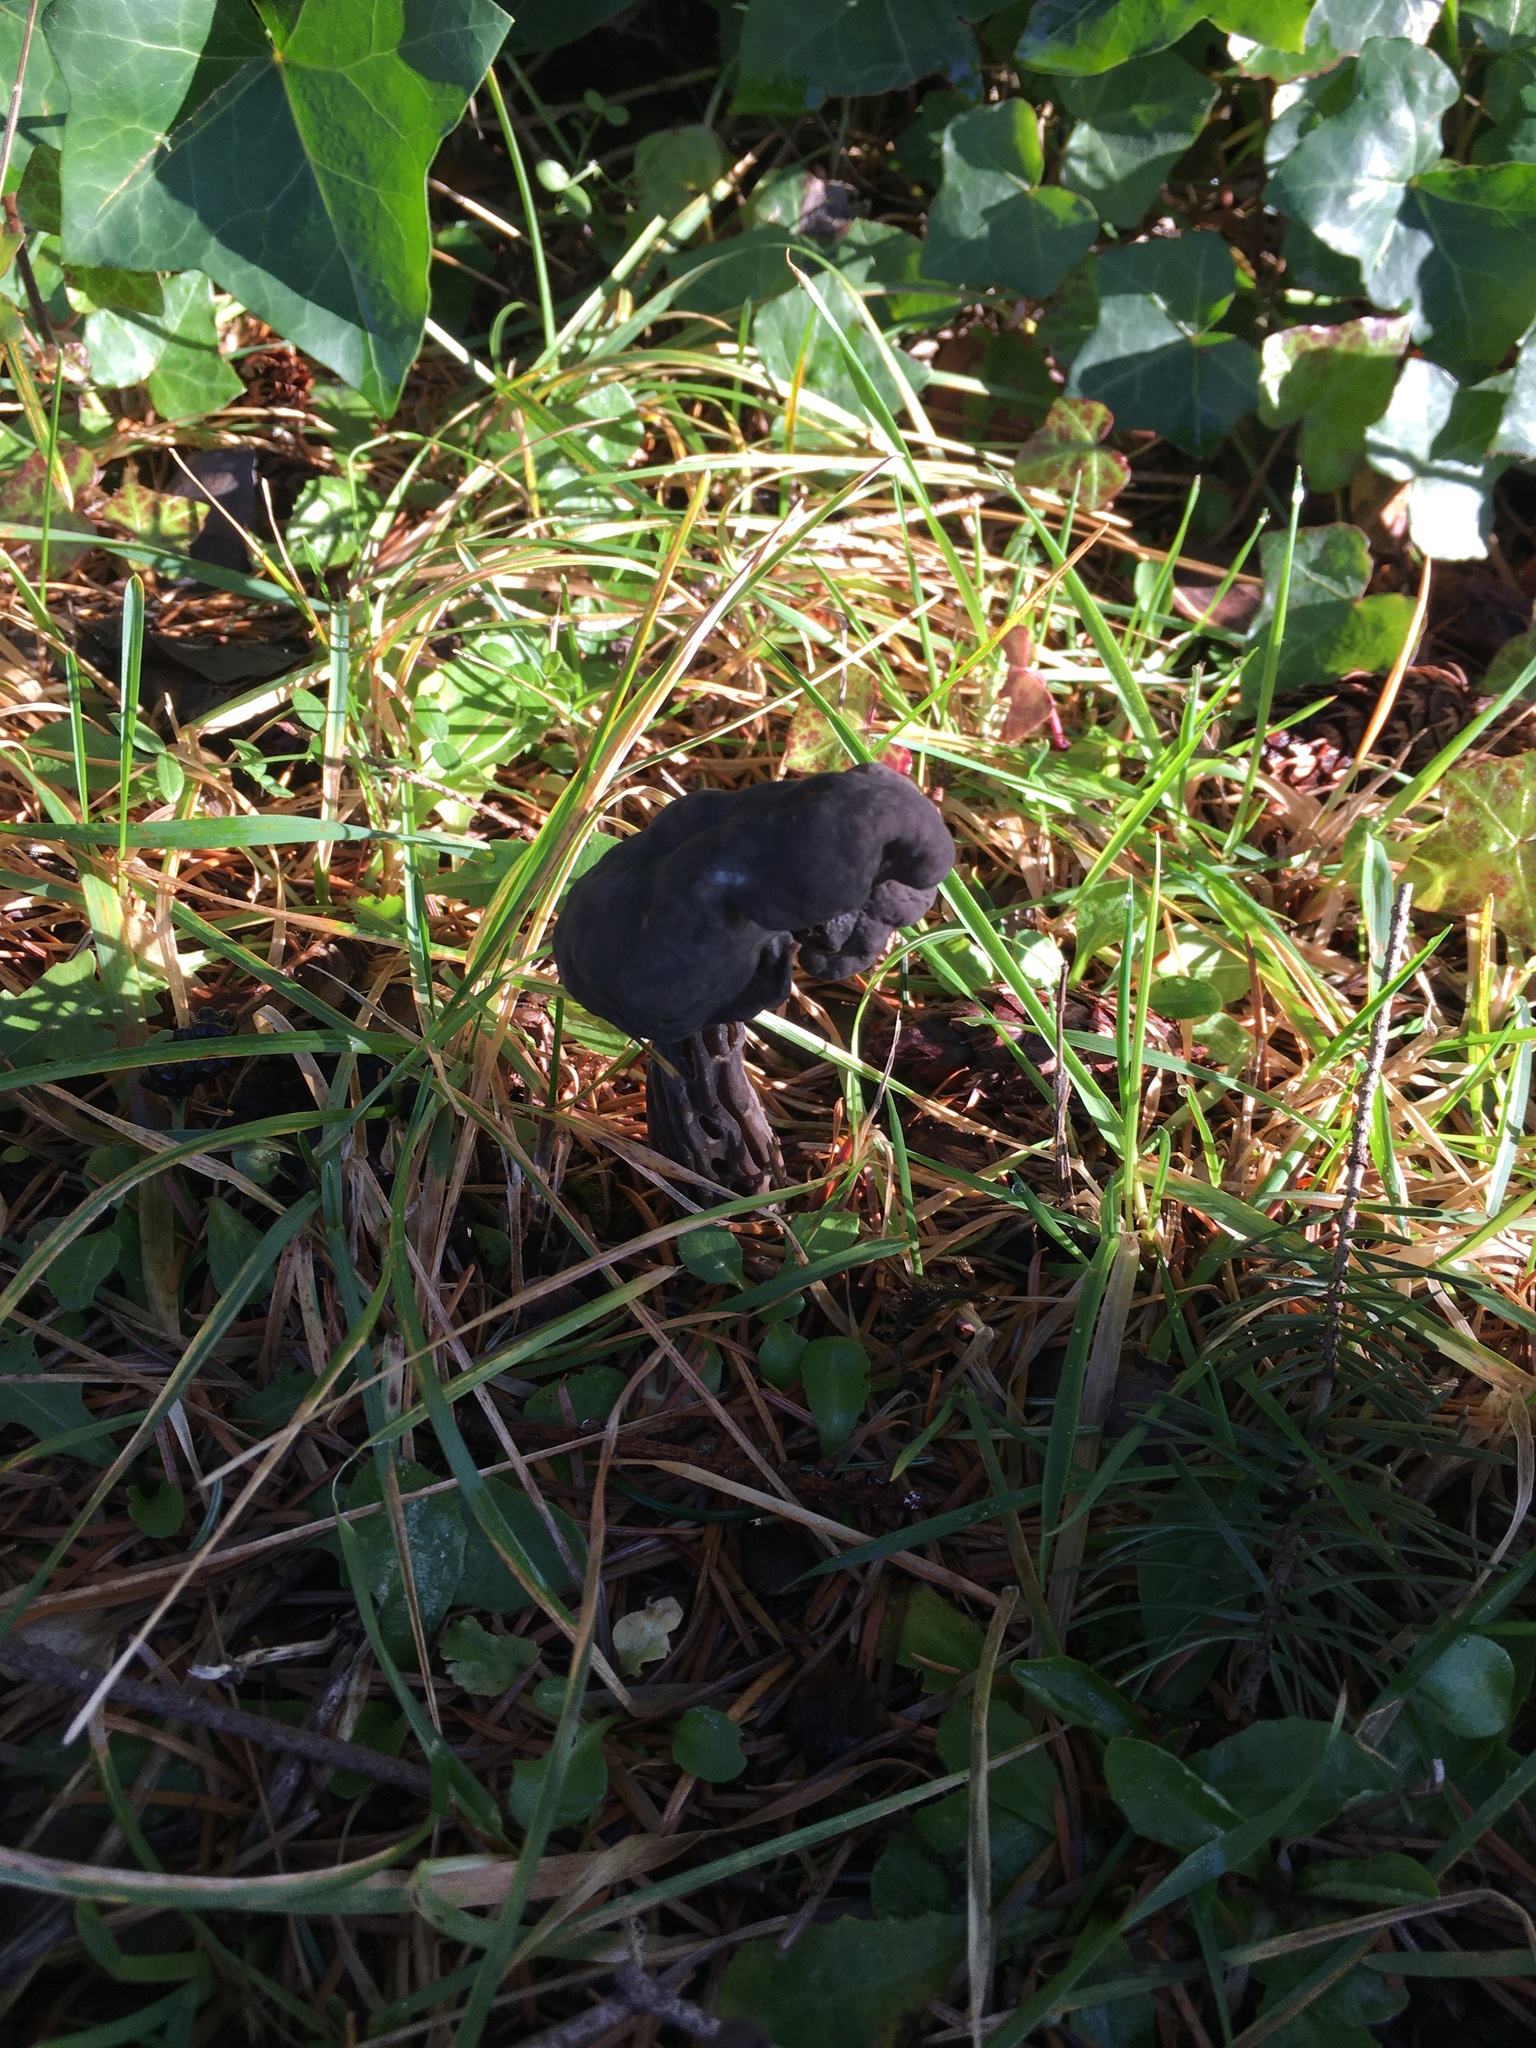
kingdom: Fungi
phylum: Ascomycota
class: Pezizomycetes
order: Pezizales
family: Helvellaceae
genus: Helvella
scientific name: Helvella vespertina
